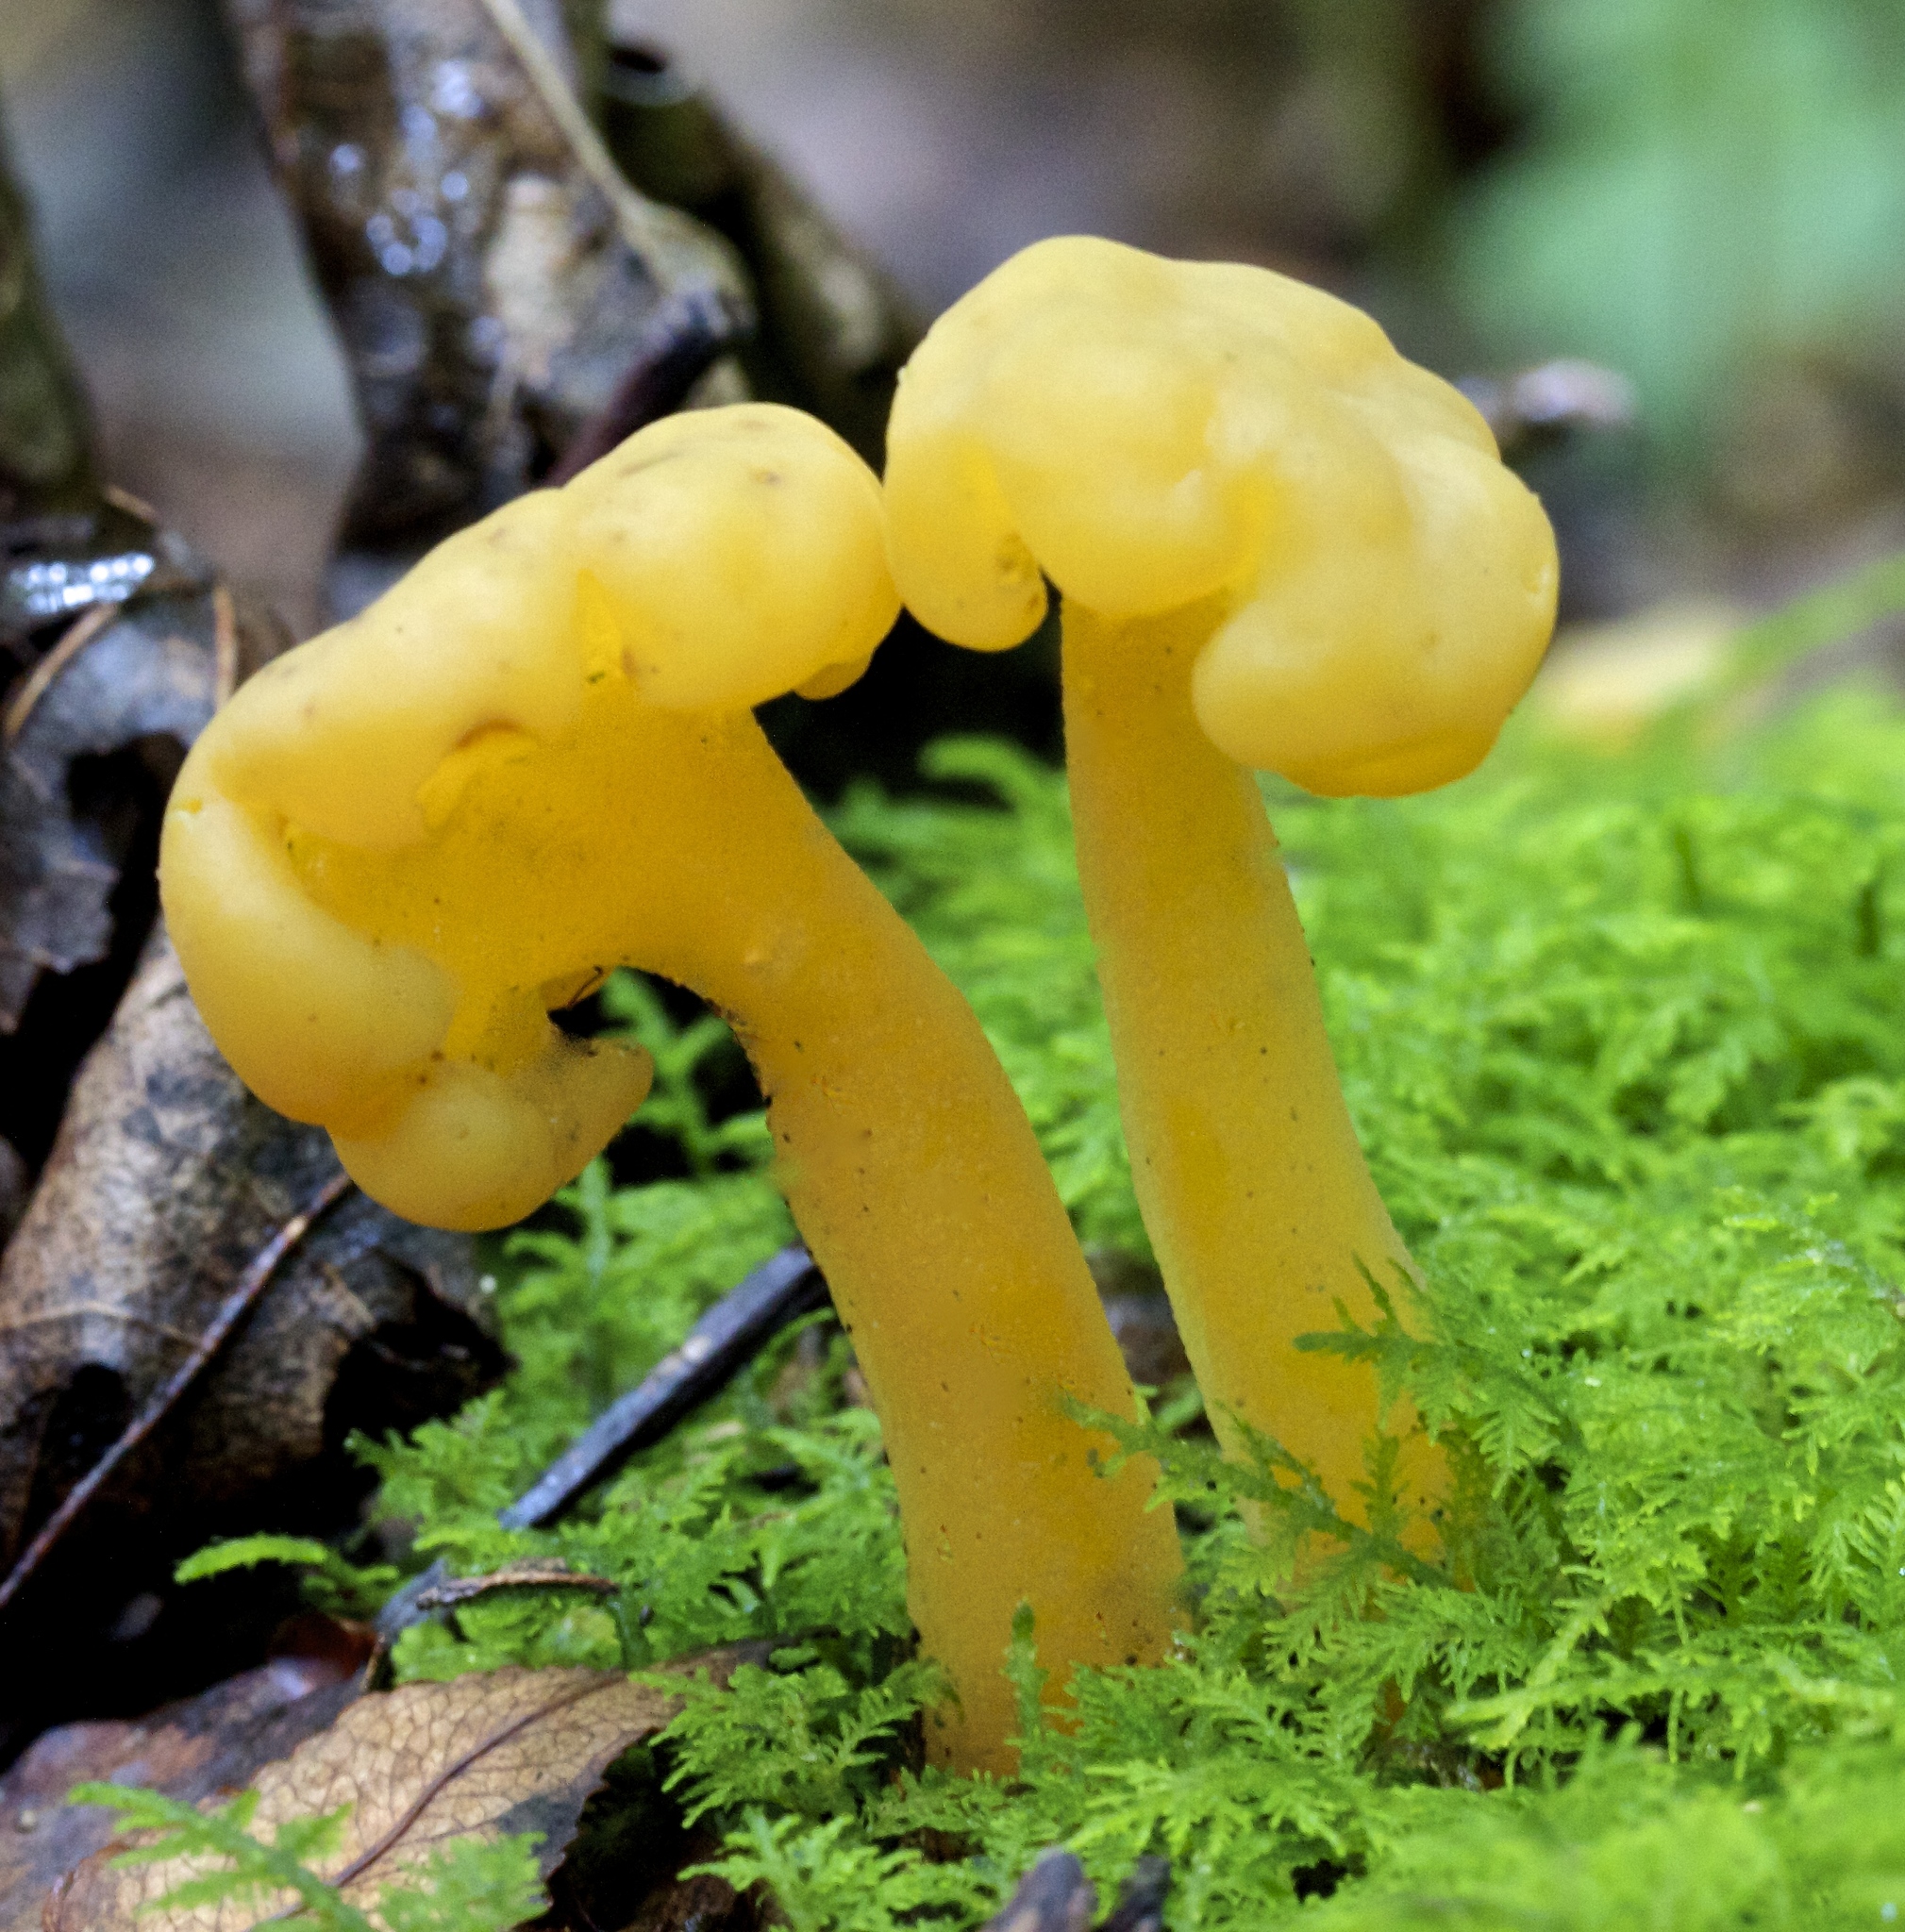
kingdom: Fungi
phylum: Ascomycota
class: Leotiomycetes
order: Leotiales
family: Leotiaceae
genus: Leotia
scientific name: Leotia lubrica
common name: Jellybaby
